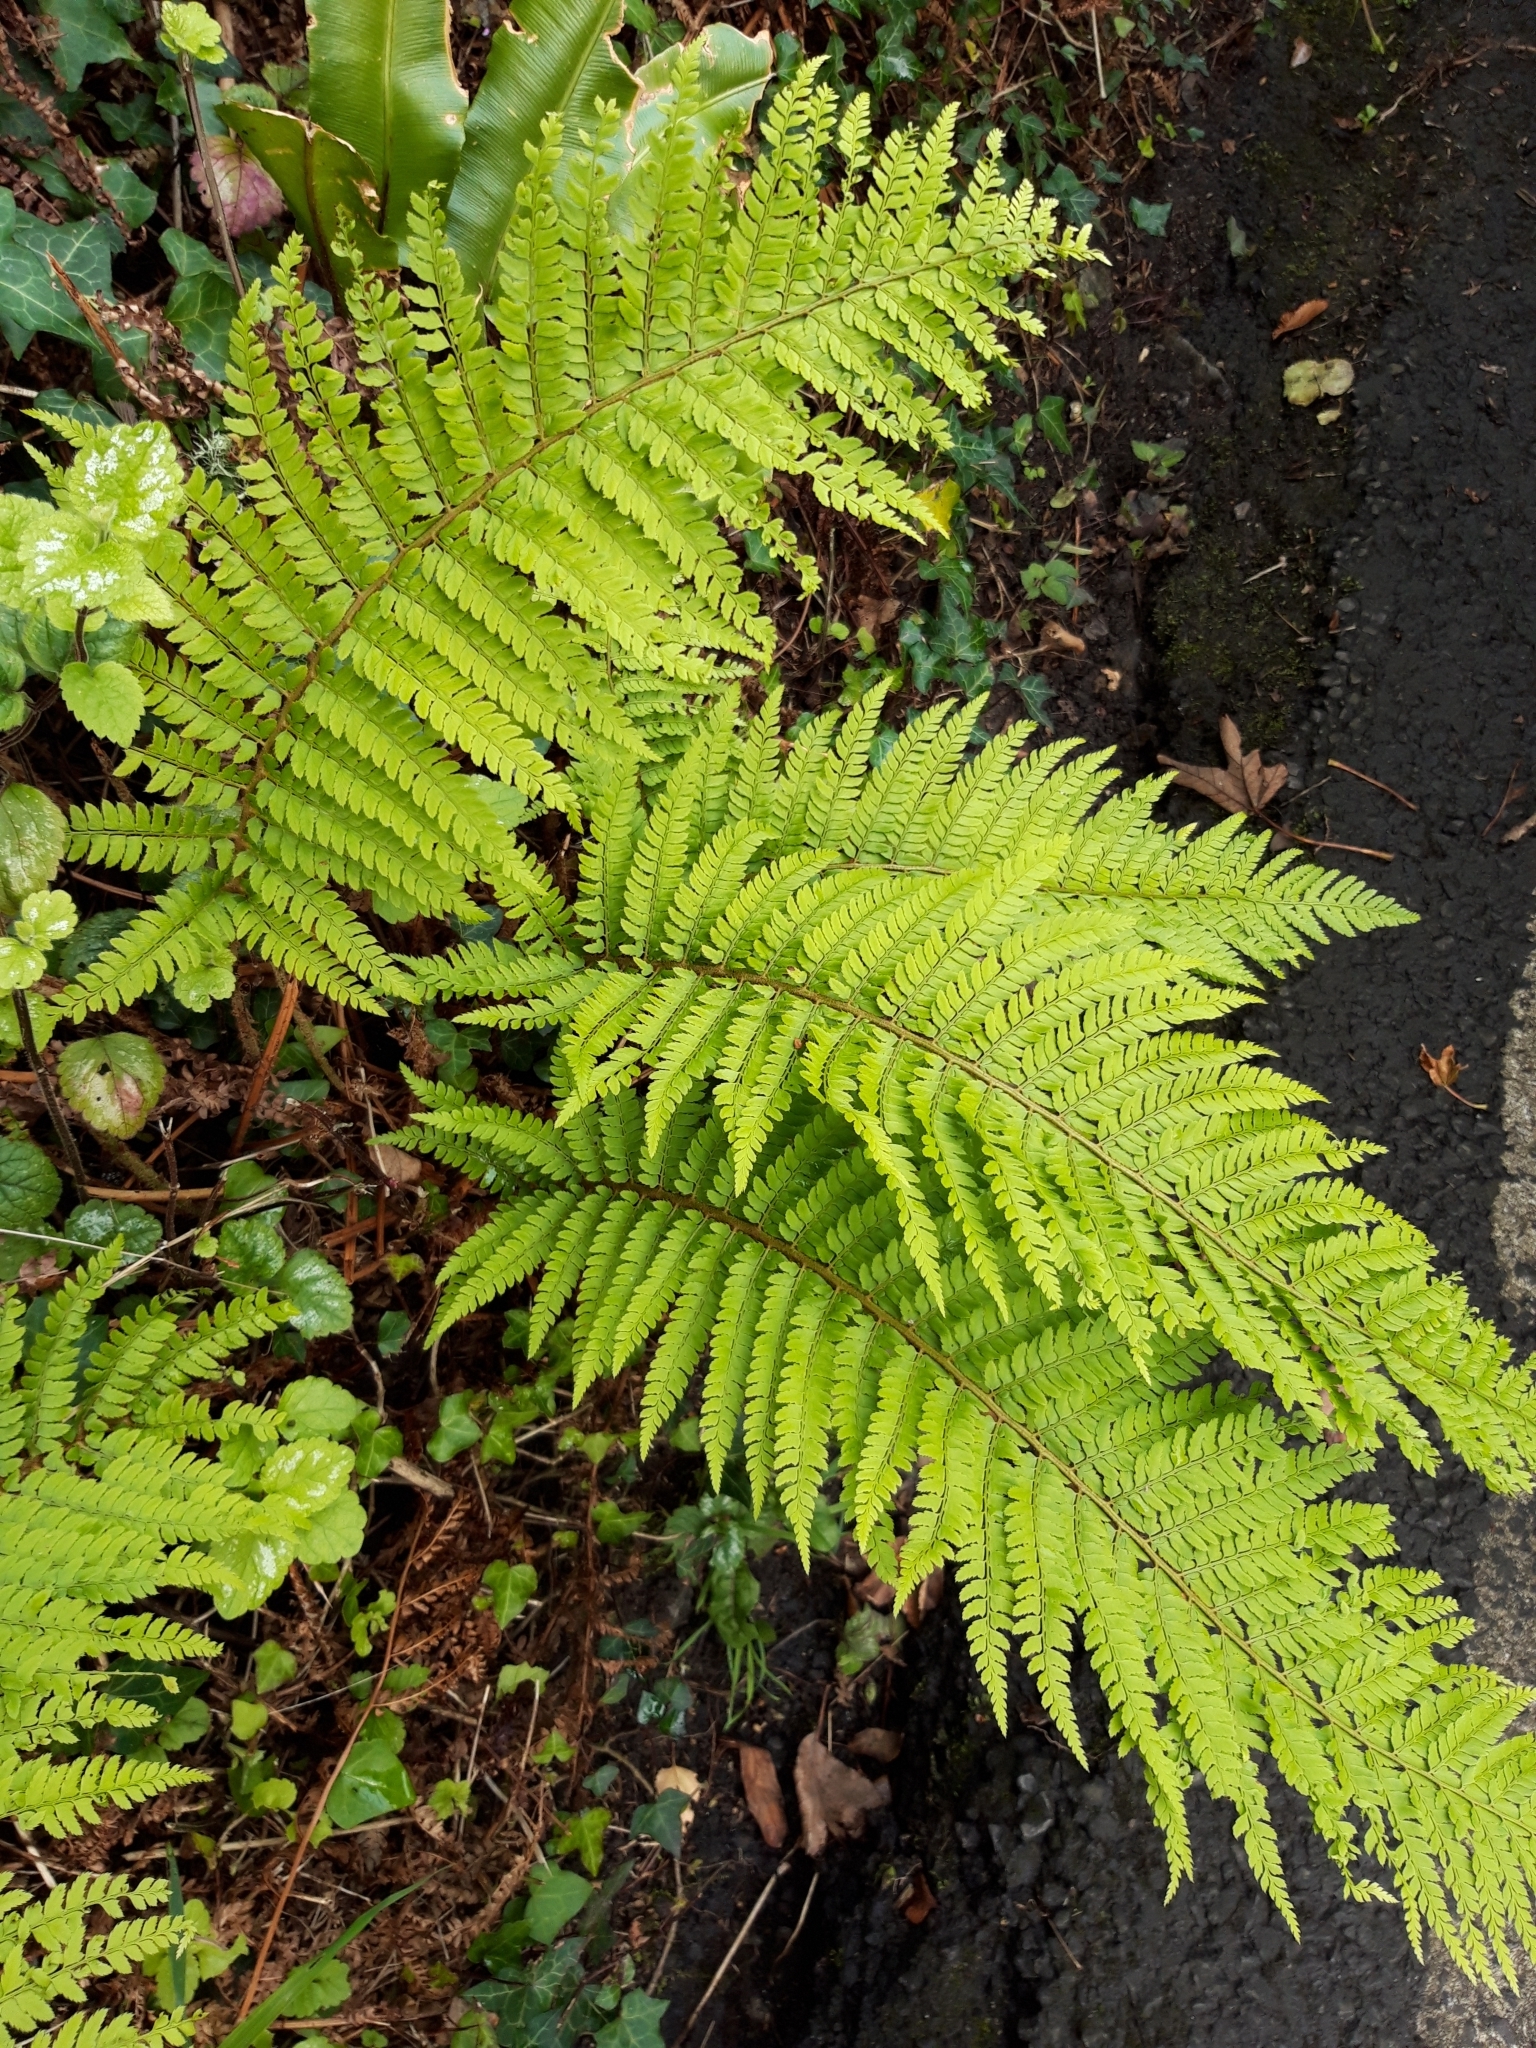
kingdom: Plantae
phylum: Tracheophyta
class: Polypodiopsida
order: Polypodiales
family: Dryopteridaceae
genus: Polystichum
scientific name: Polystichum setiferum
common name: Soft shield-fern
